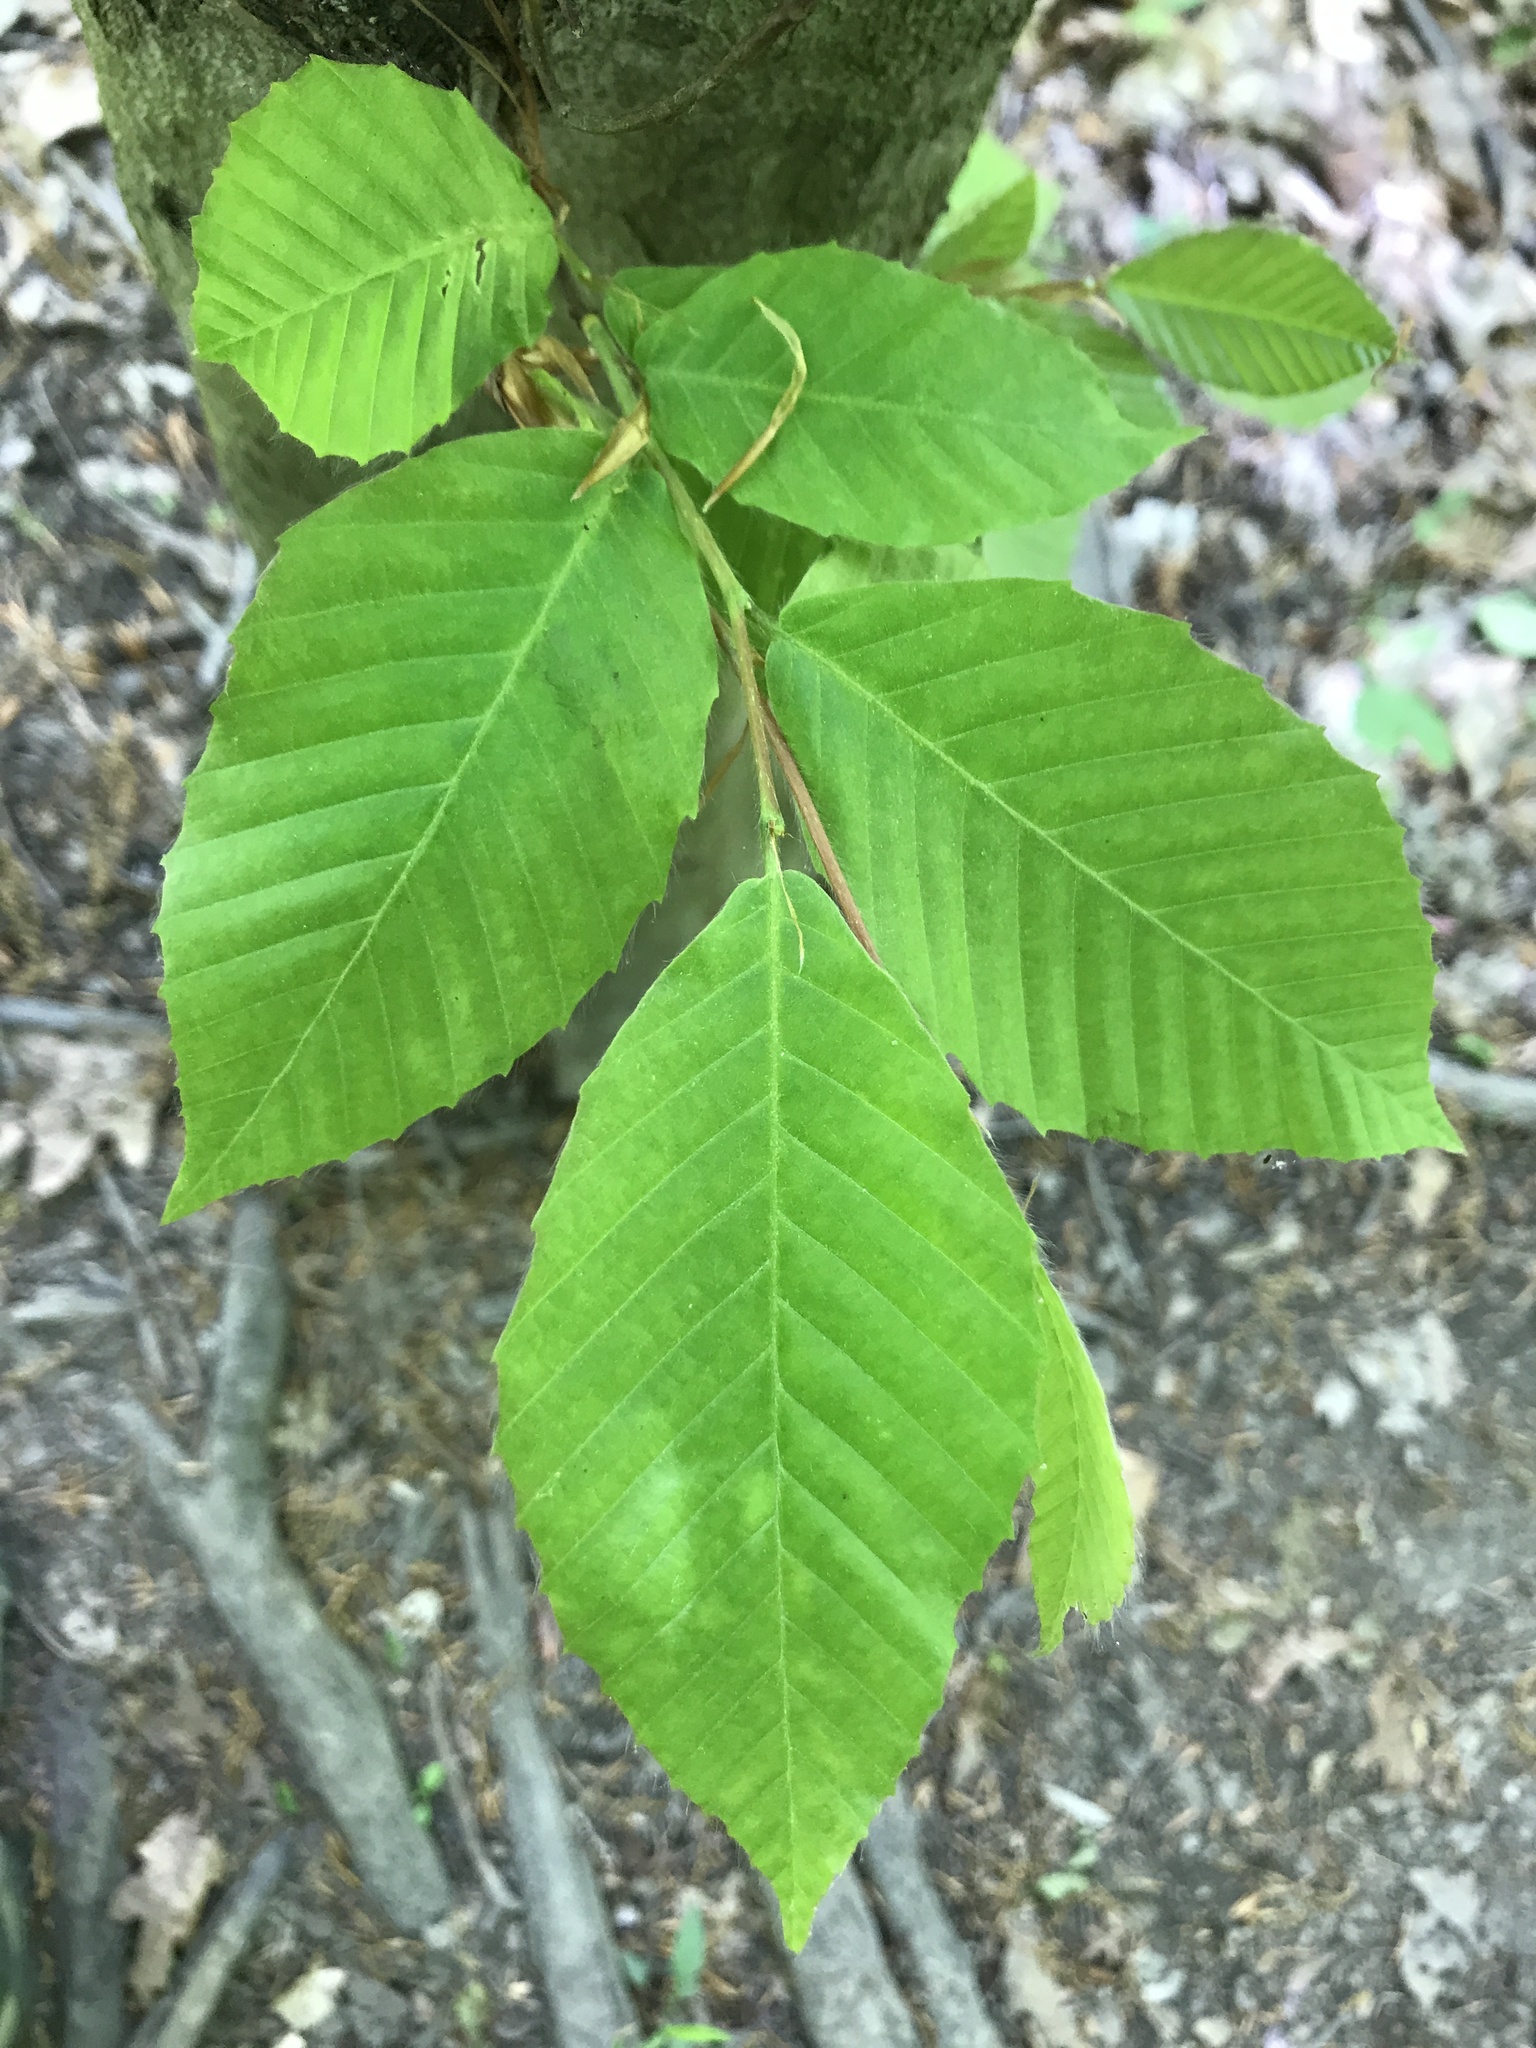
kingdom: Plantae
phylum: Tracheophyta
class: Magnoliopsida
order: Fagales
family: Fagaceae
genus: Fagus
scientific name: Fagus grandifolia
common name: American beech
